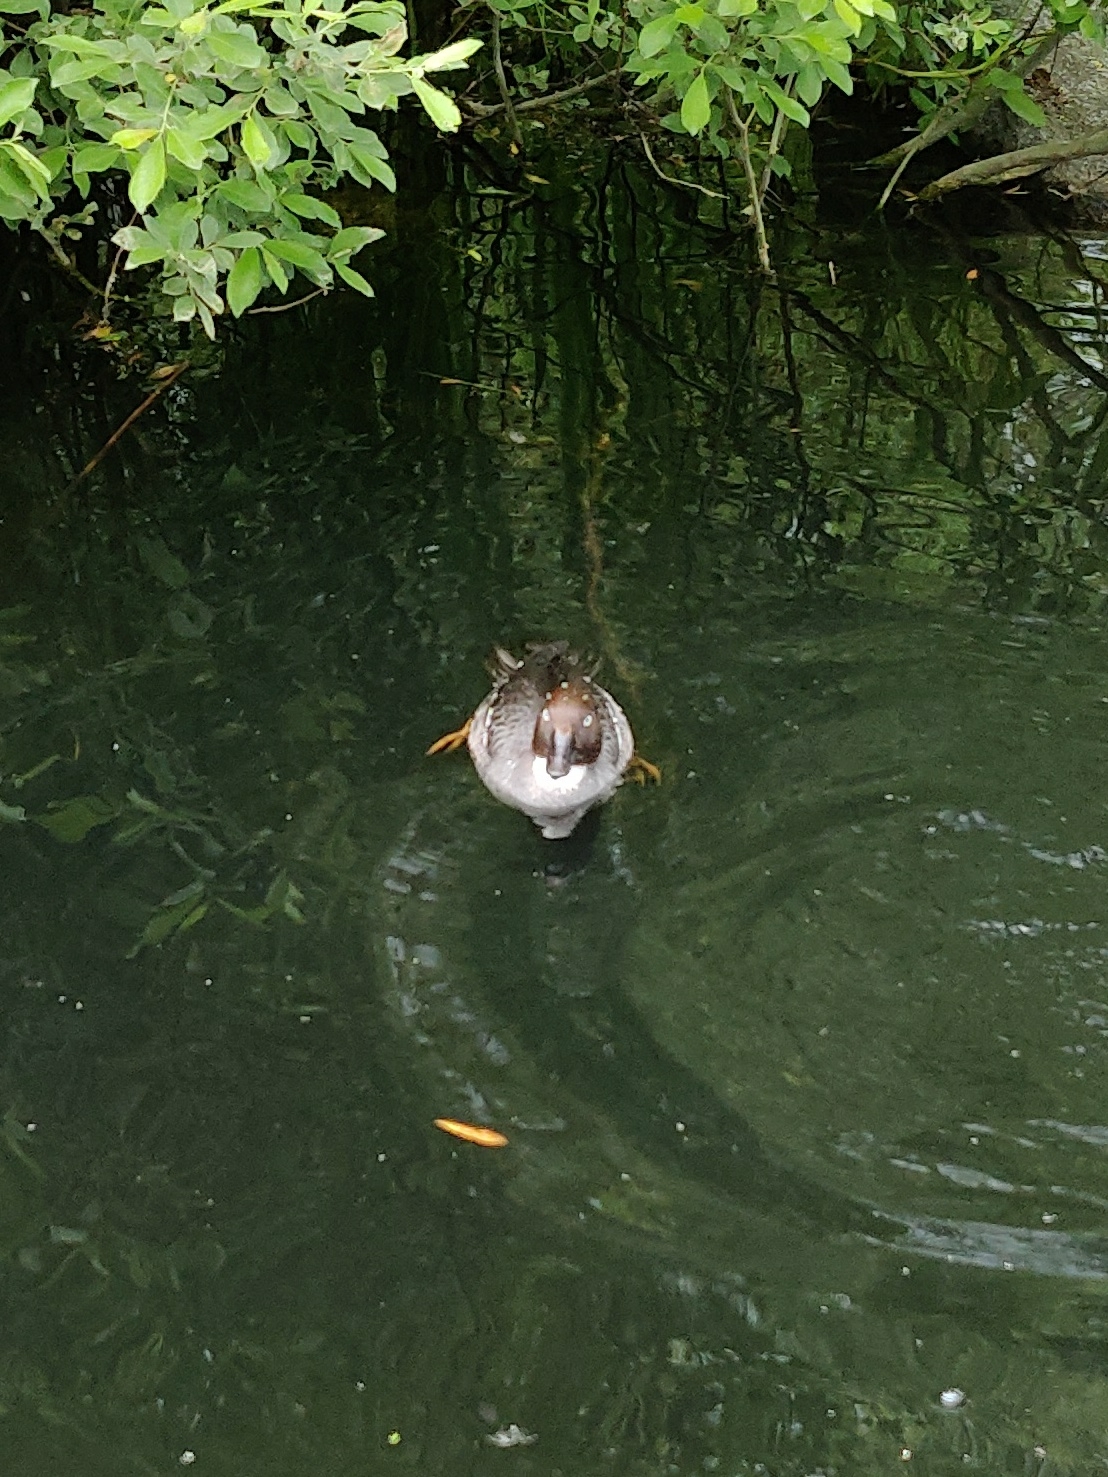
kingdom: Animalia
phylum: Chordata
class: Aves
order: Anseriformes
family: Anatidae
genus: Bucephala
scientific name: Bucephala clangula
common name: Common goldeneye
